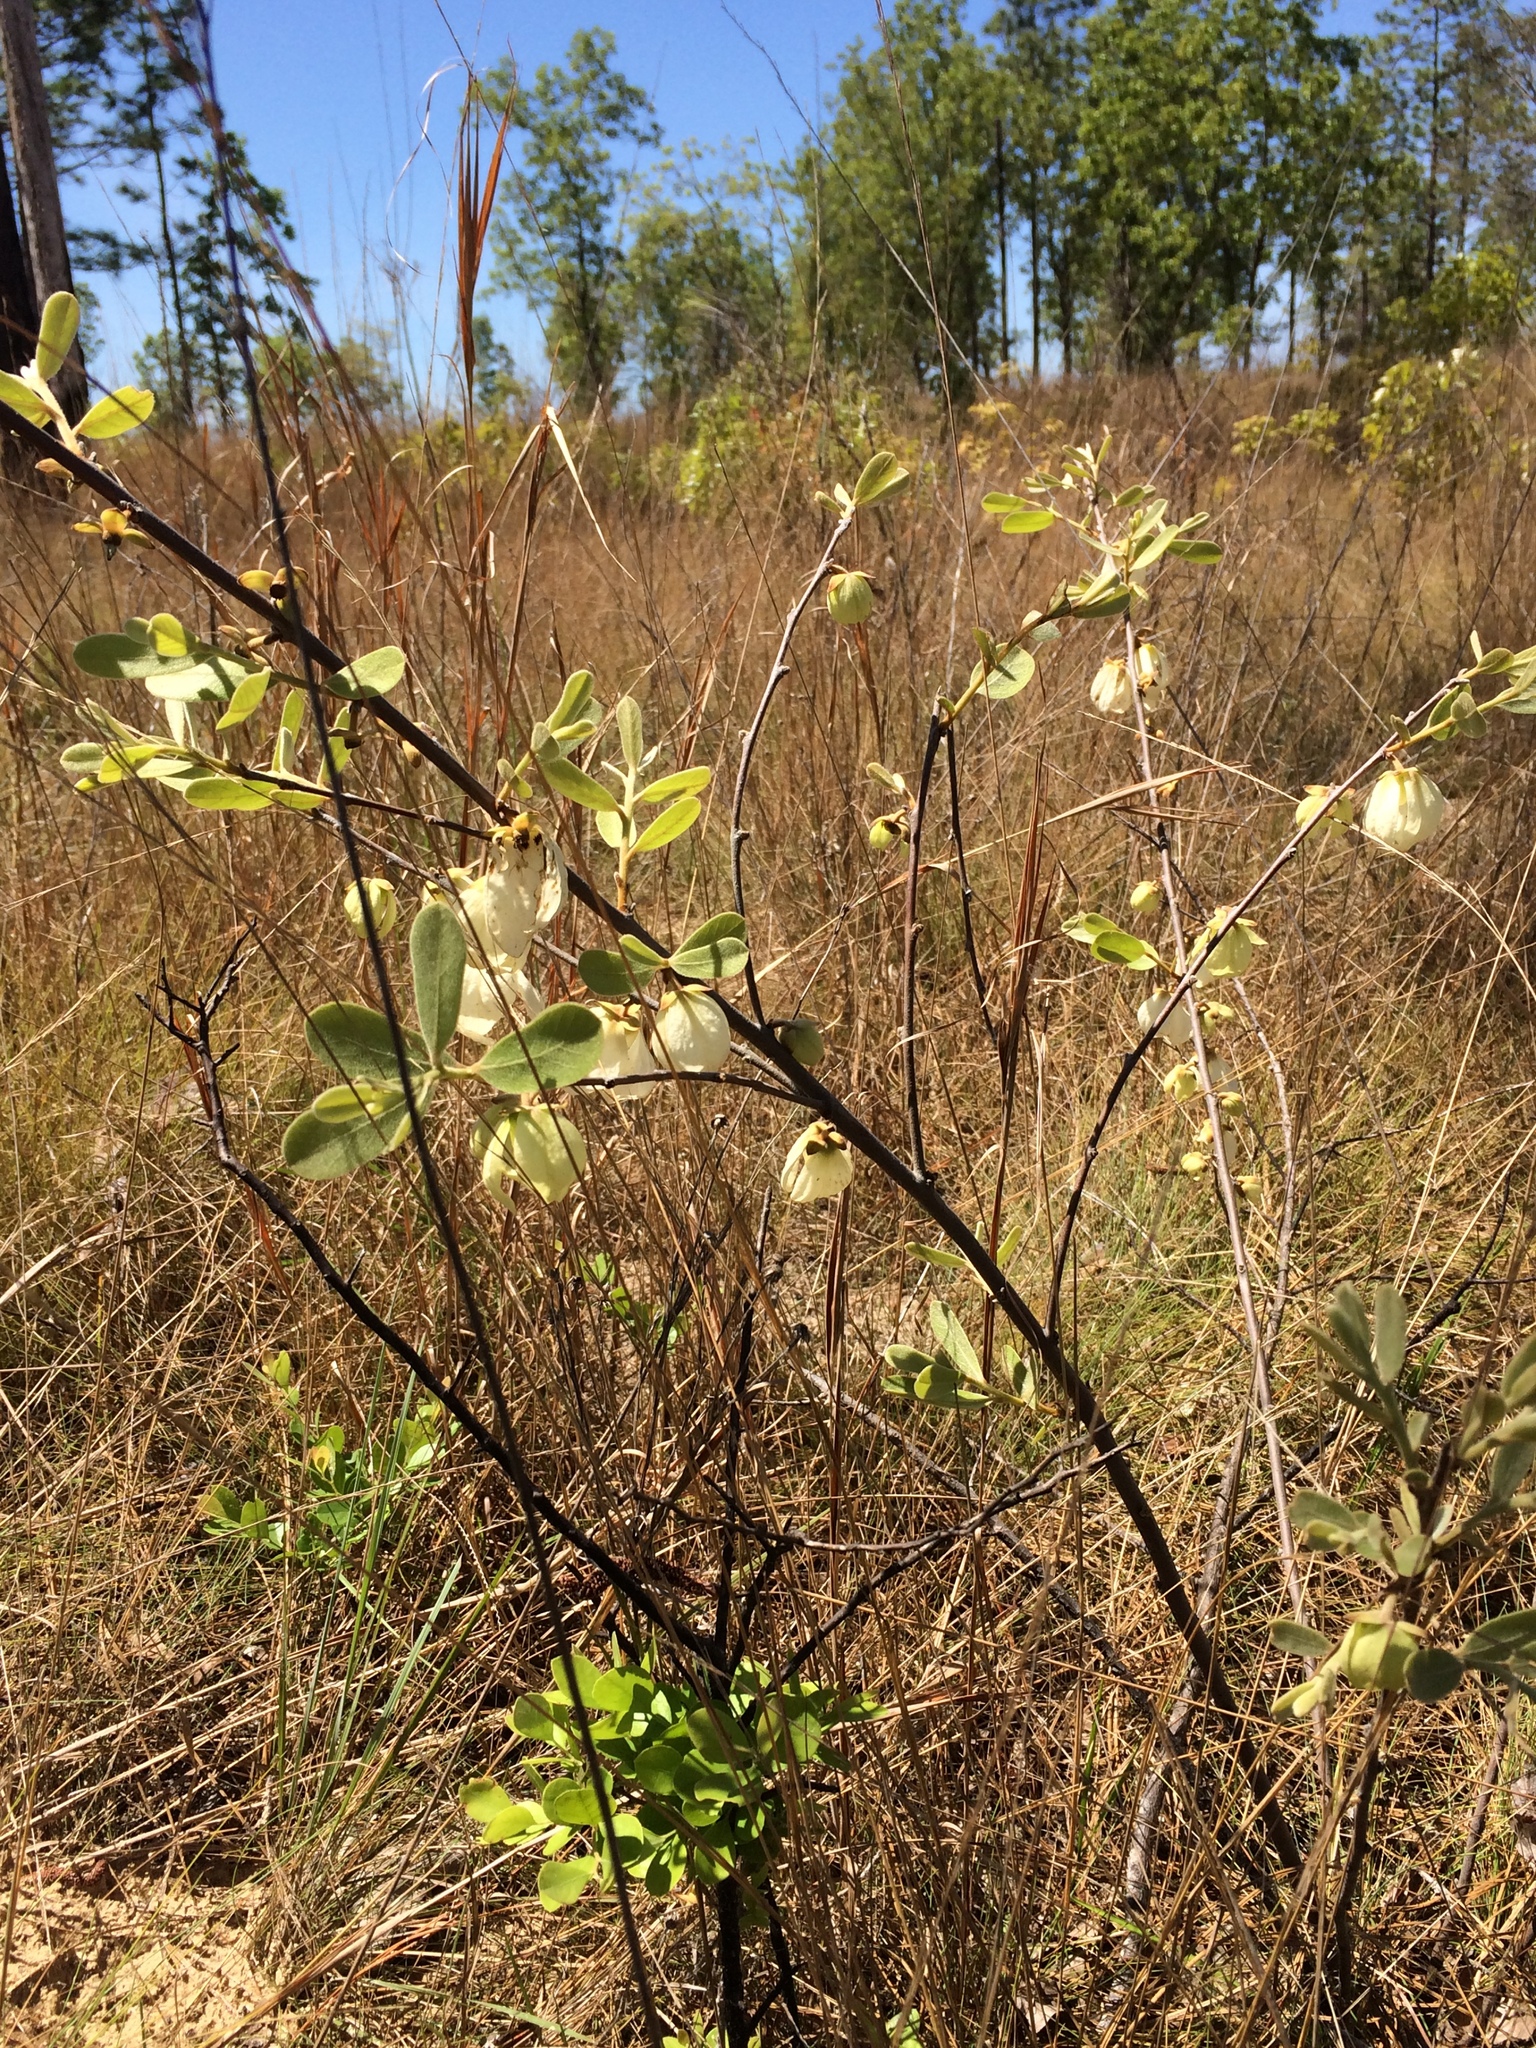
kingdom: Plantae
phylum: Tracheophyta
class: Magnoliopsida
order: Magnoliales
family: Annonaceae
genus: Asimina
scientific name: Asimina speciosa
